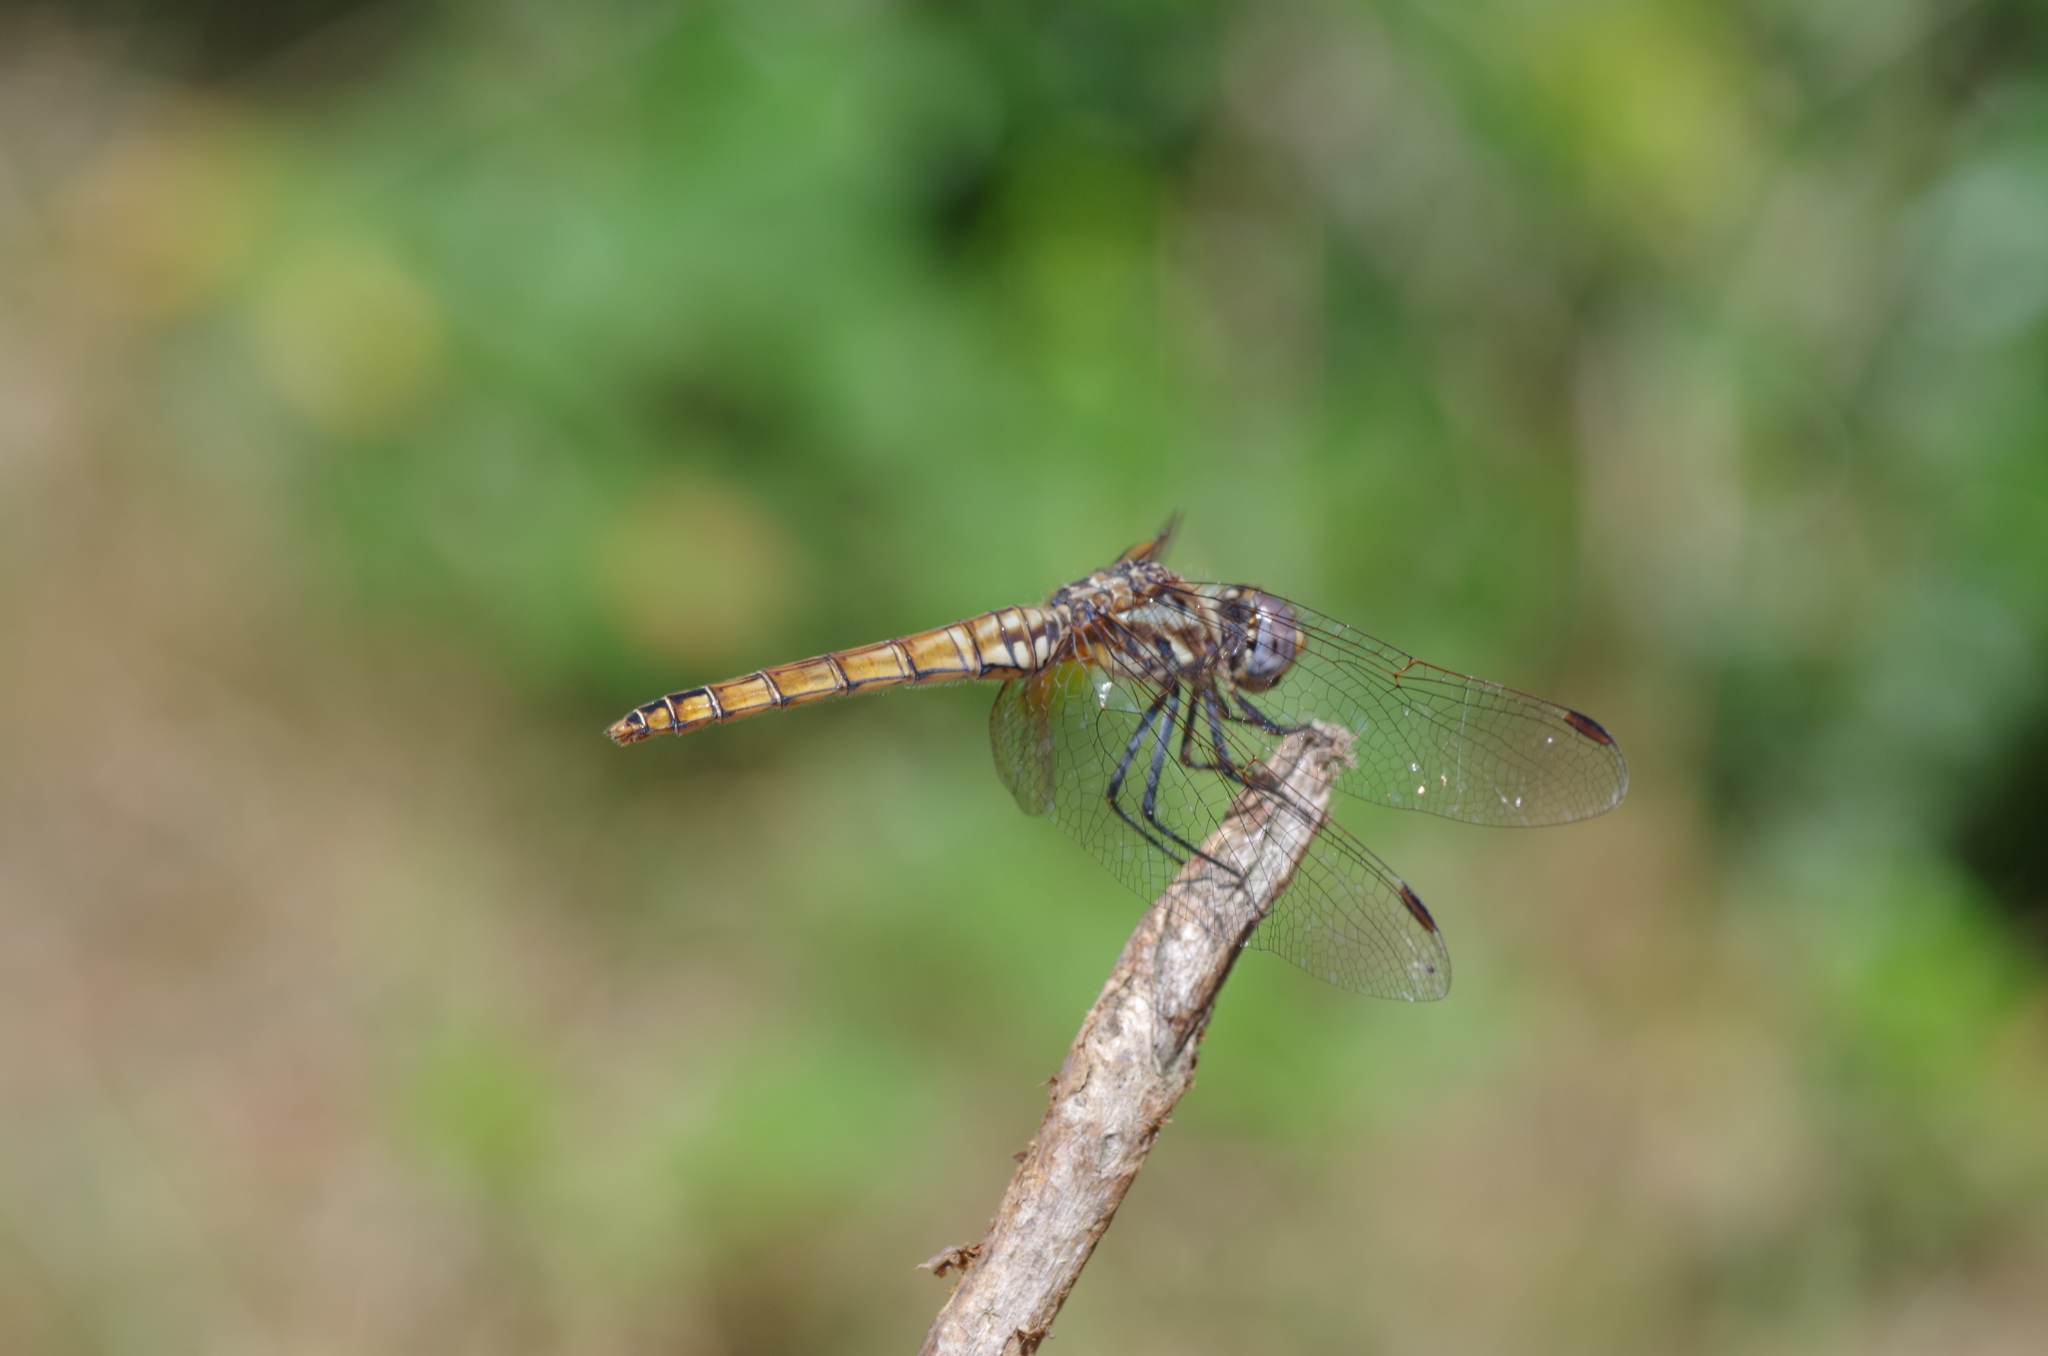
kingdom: Animalia
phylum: Arthropoda
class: Insecta
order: Odonata
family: Libellulidae
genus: Trithemis
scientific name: Trithemis annulata
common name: Violet dropwing
